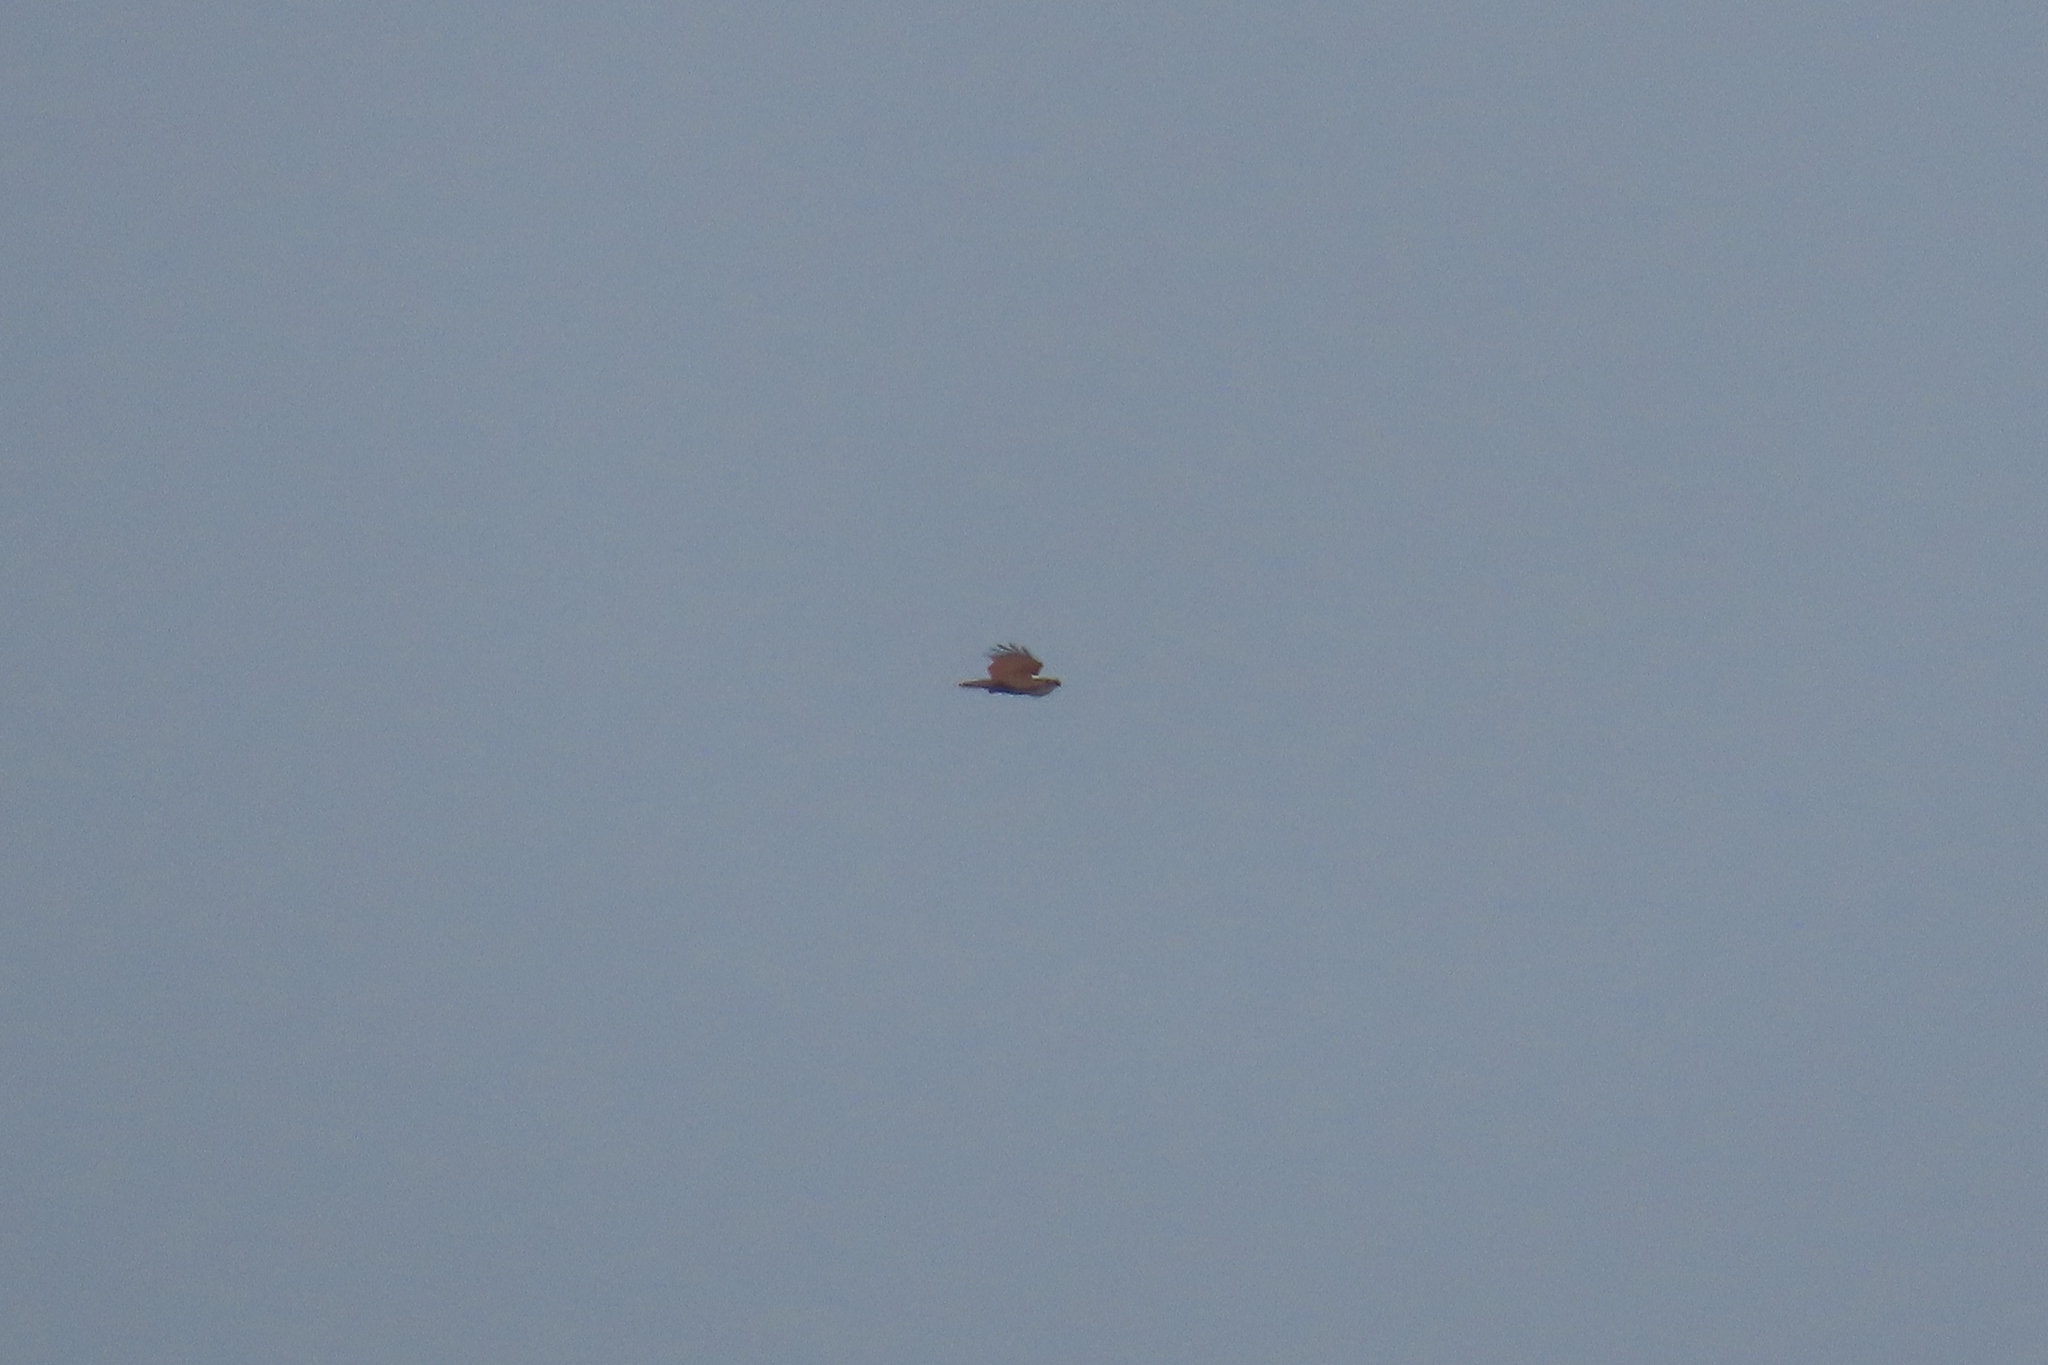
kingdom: Animalia
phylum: Chordata
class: Aves
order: Accipitriformes
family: Accipitridae
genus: Haliastur
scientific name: Haliastur indus
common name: Brahminy kite
